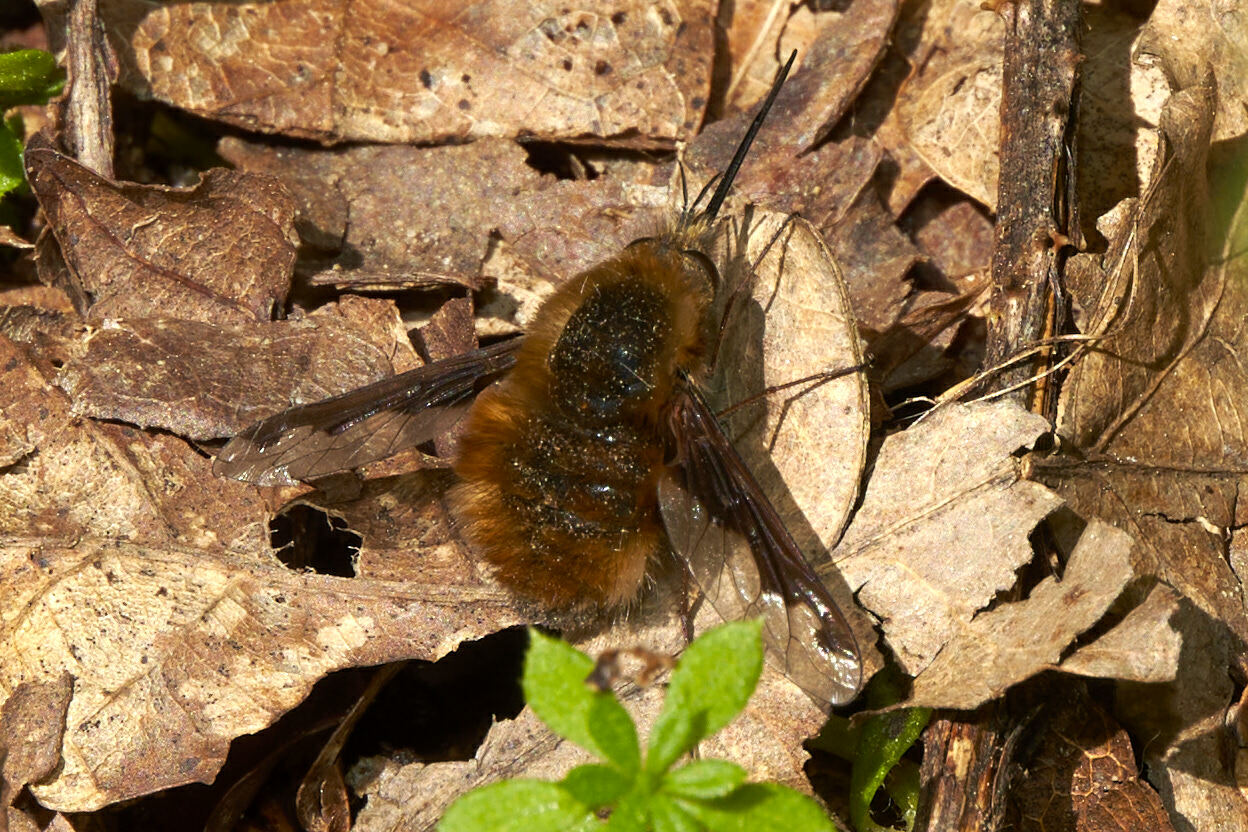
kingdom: Animalia
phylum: Arthropoda
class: Insecta
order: Diptera
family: Bombyliidae
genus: Bombylius
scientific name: Bombylius major
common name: Bee fly
